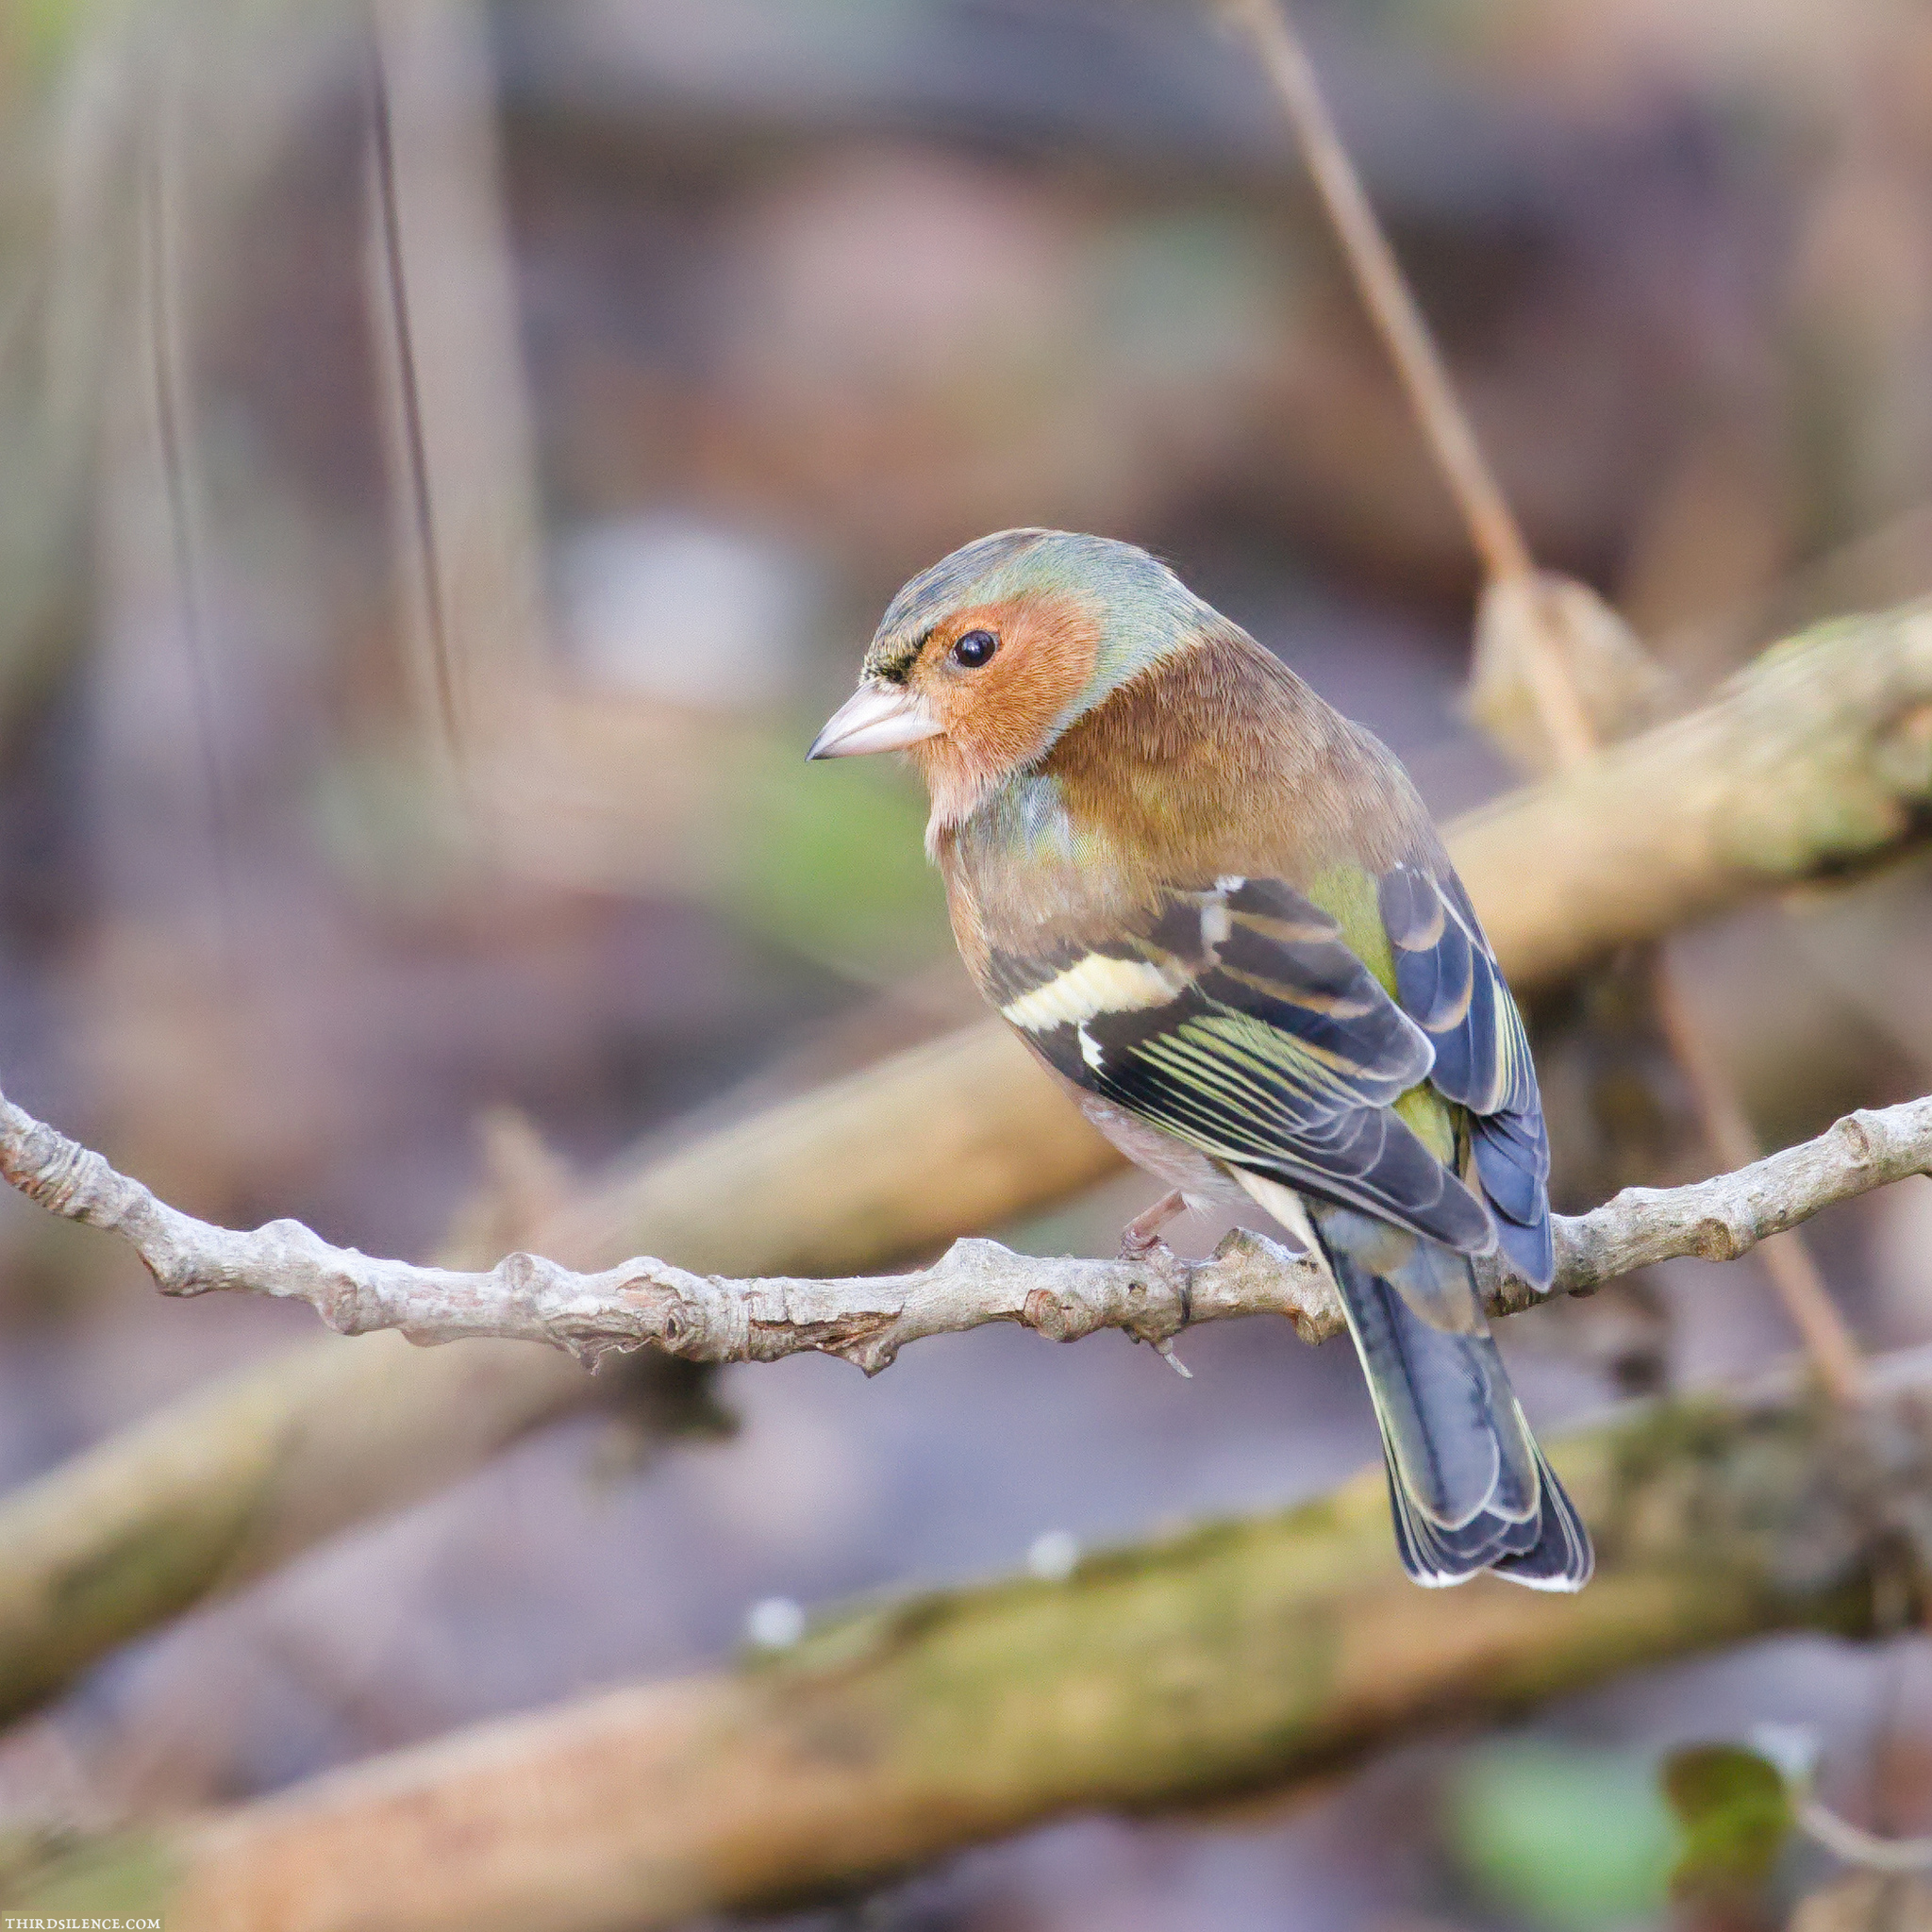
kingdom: Animalia
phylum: Chordata
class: Aves
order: Passeriformes
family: Fringillidae
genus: Fringilla
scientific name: Fringilla coelebs
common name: Common chaffinch
